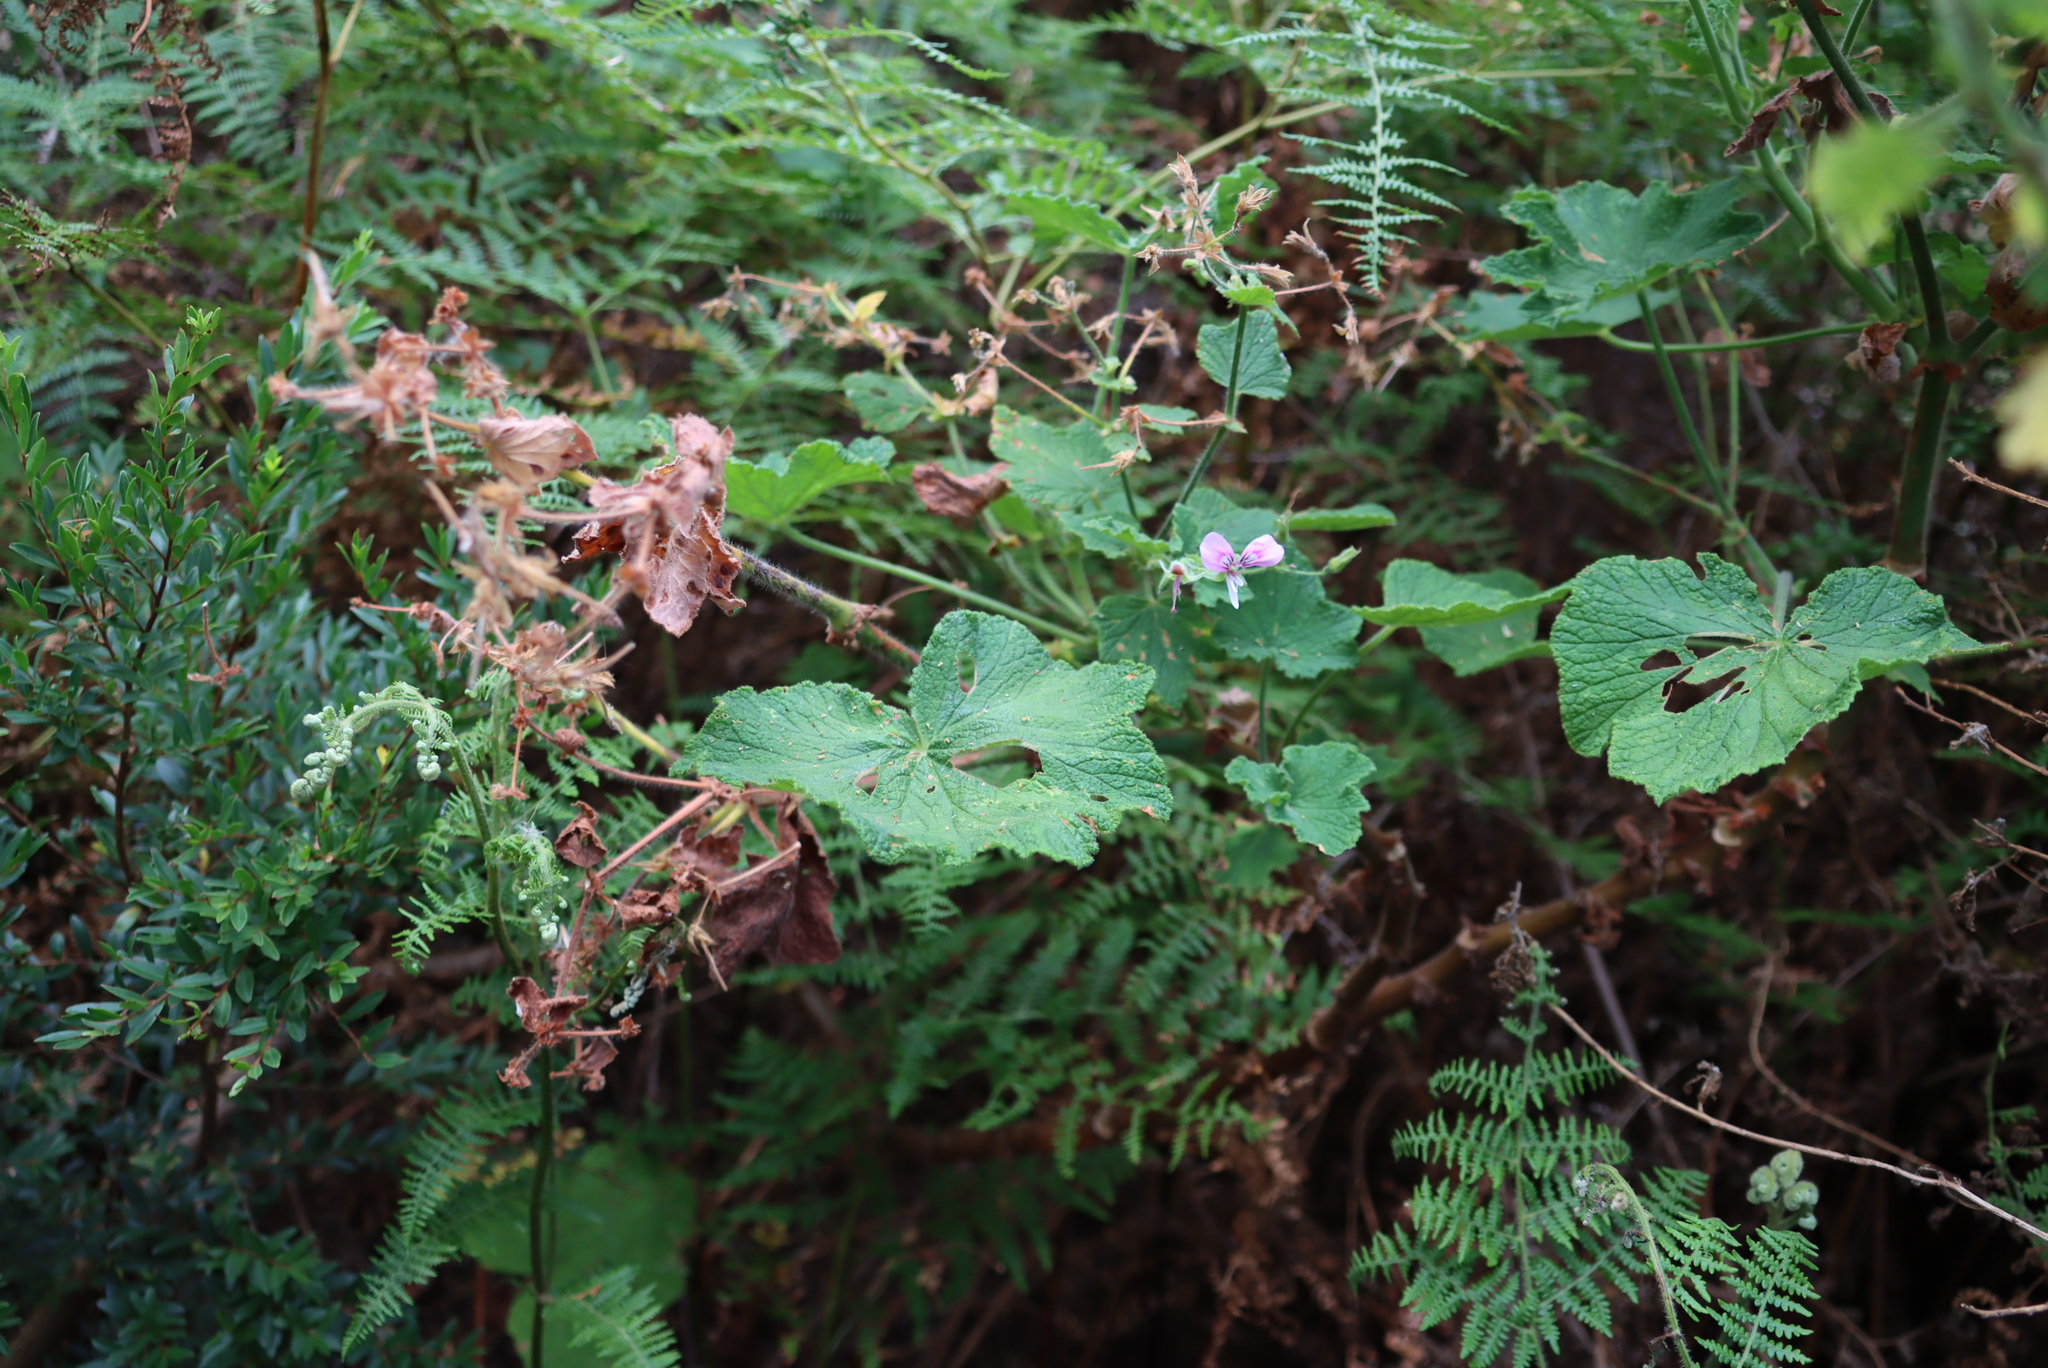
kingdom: Plantae
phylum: Tracheophyta
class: Magnoliopsida
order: Geraniales
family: Geraniaceae
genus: Pelargonium
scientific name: Pelargonium papilionaceum
